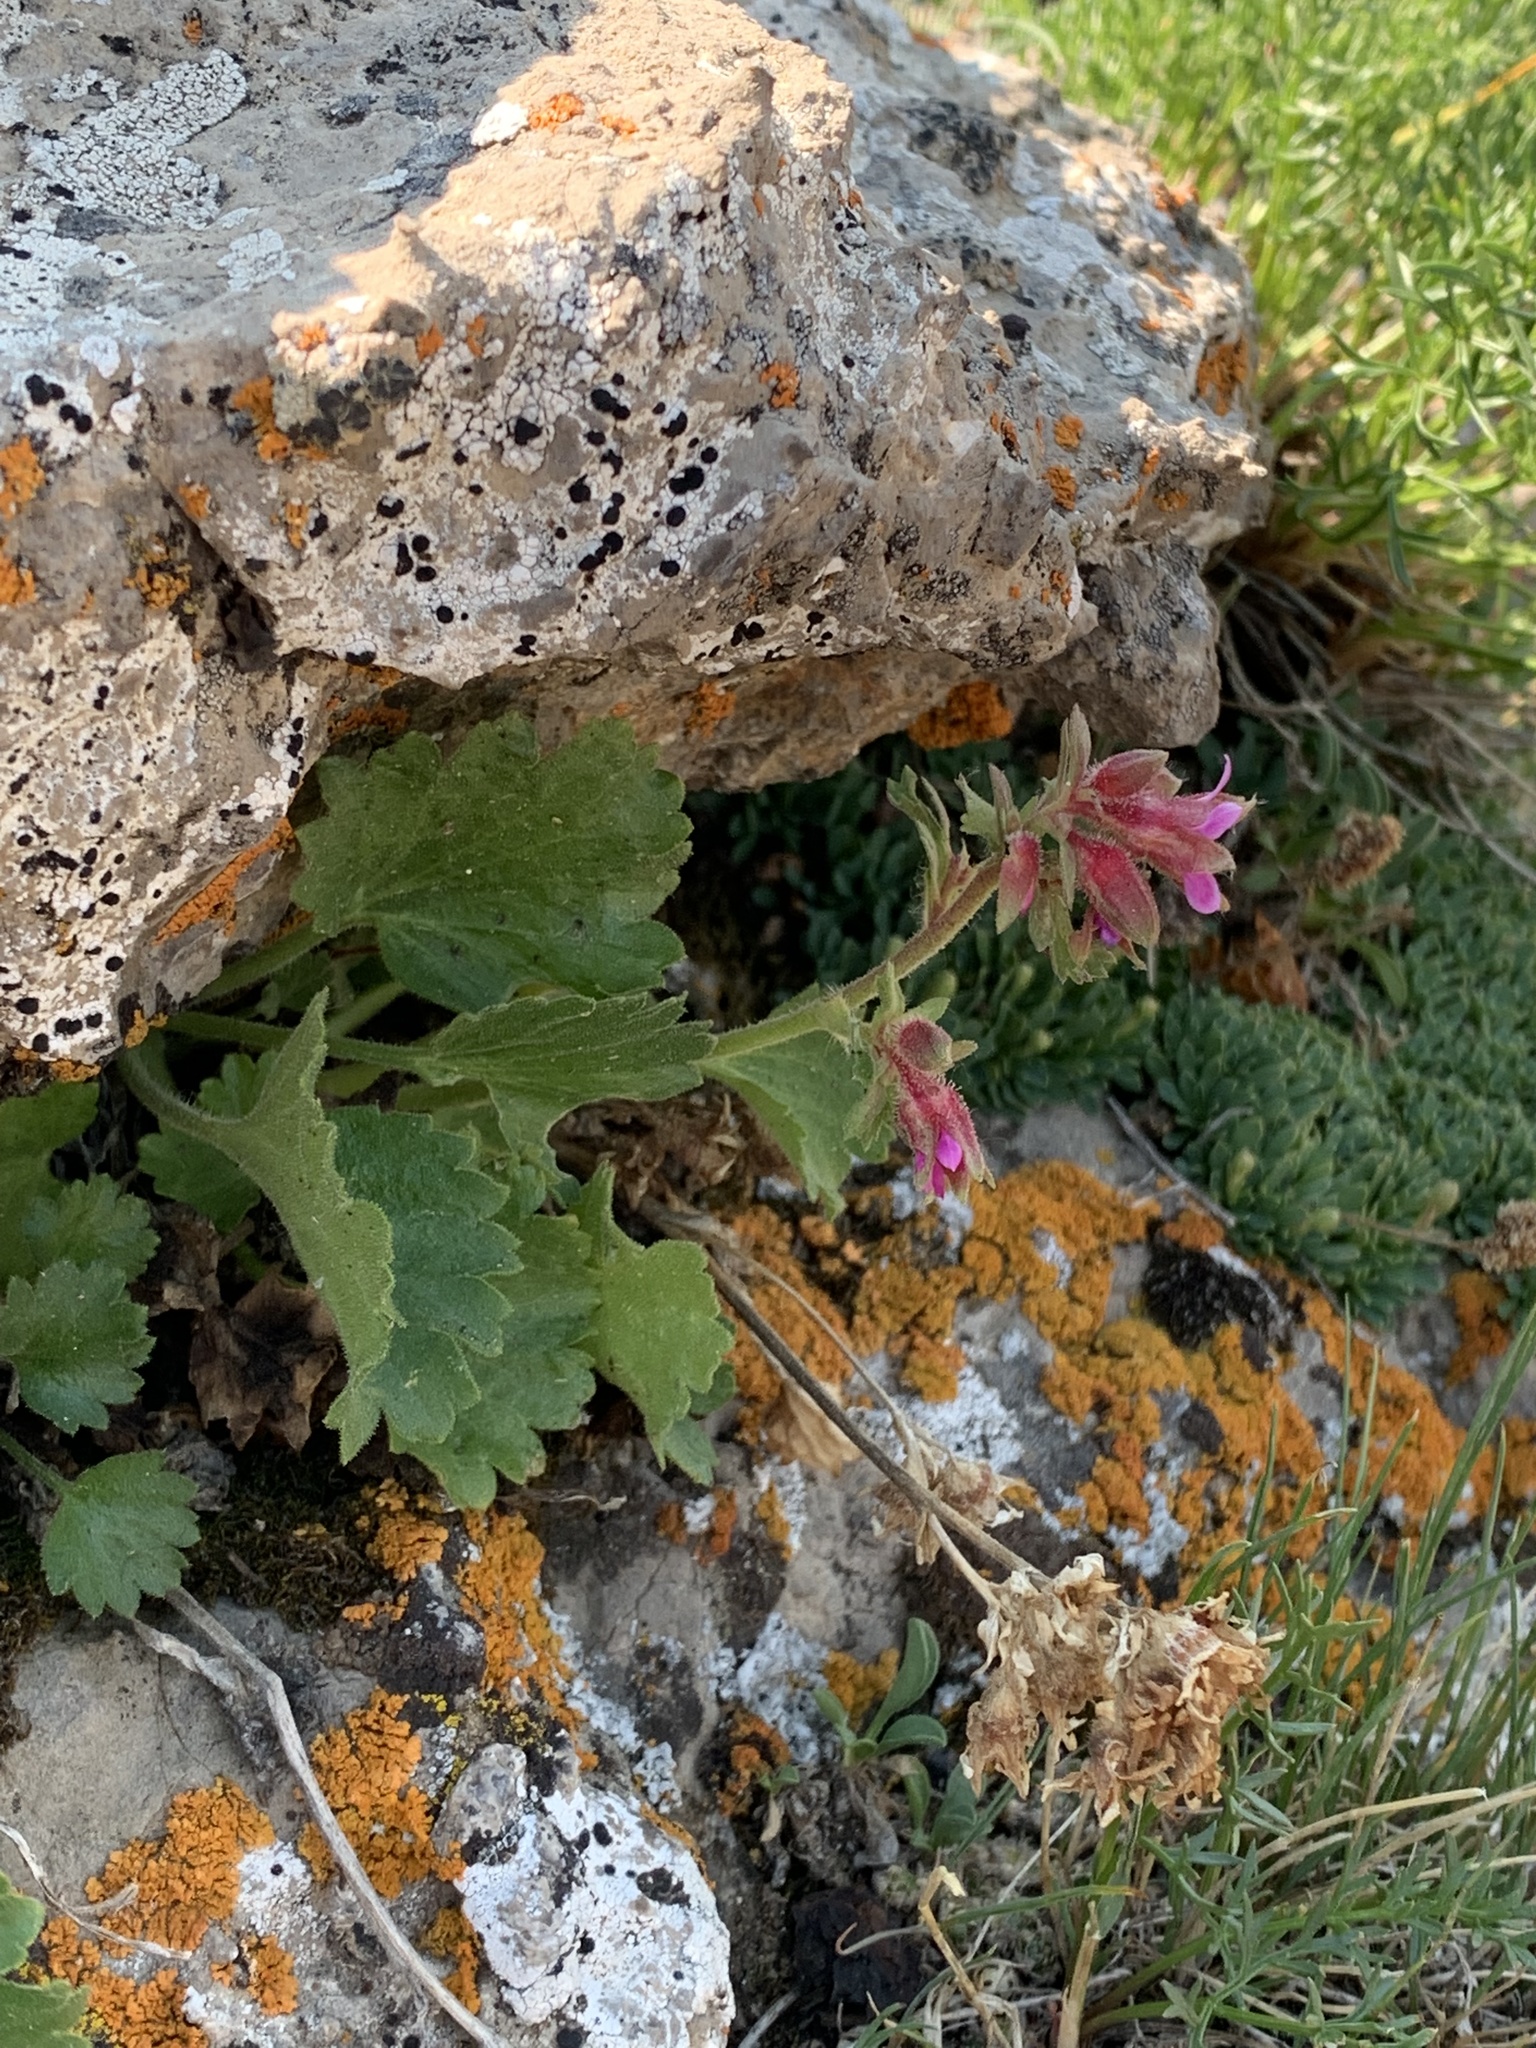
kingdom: Plantae
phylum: Tracheophyta
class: Magnoliopsida
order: Saxifragales
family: Saxifragaceae
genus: Telesonix
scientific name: Telesonix heucheriformis
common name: Alumroot brookfoam
